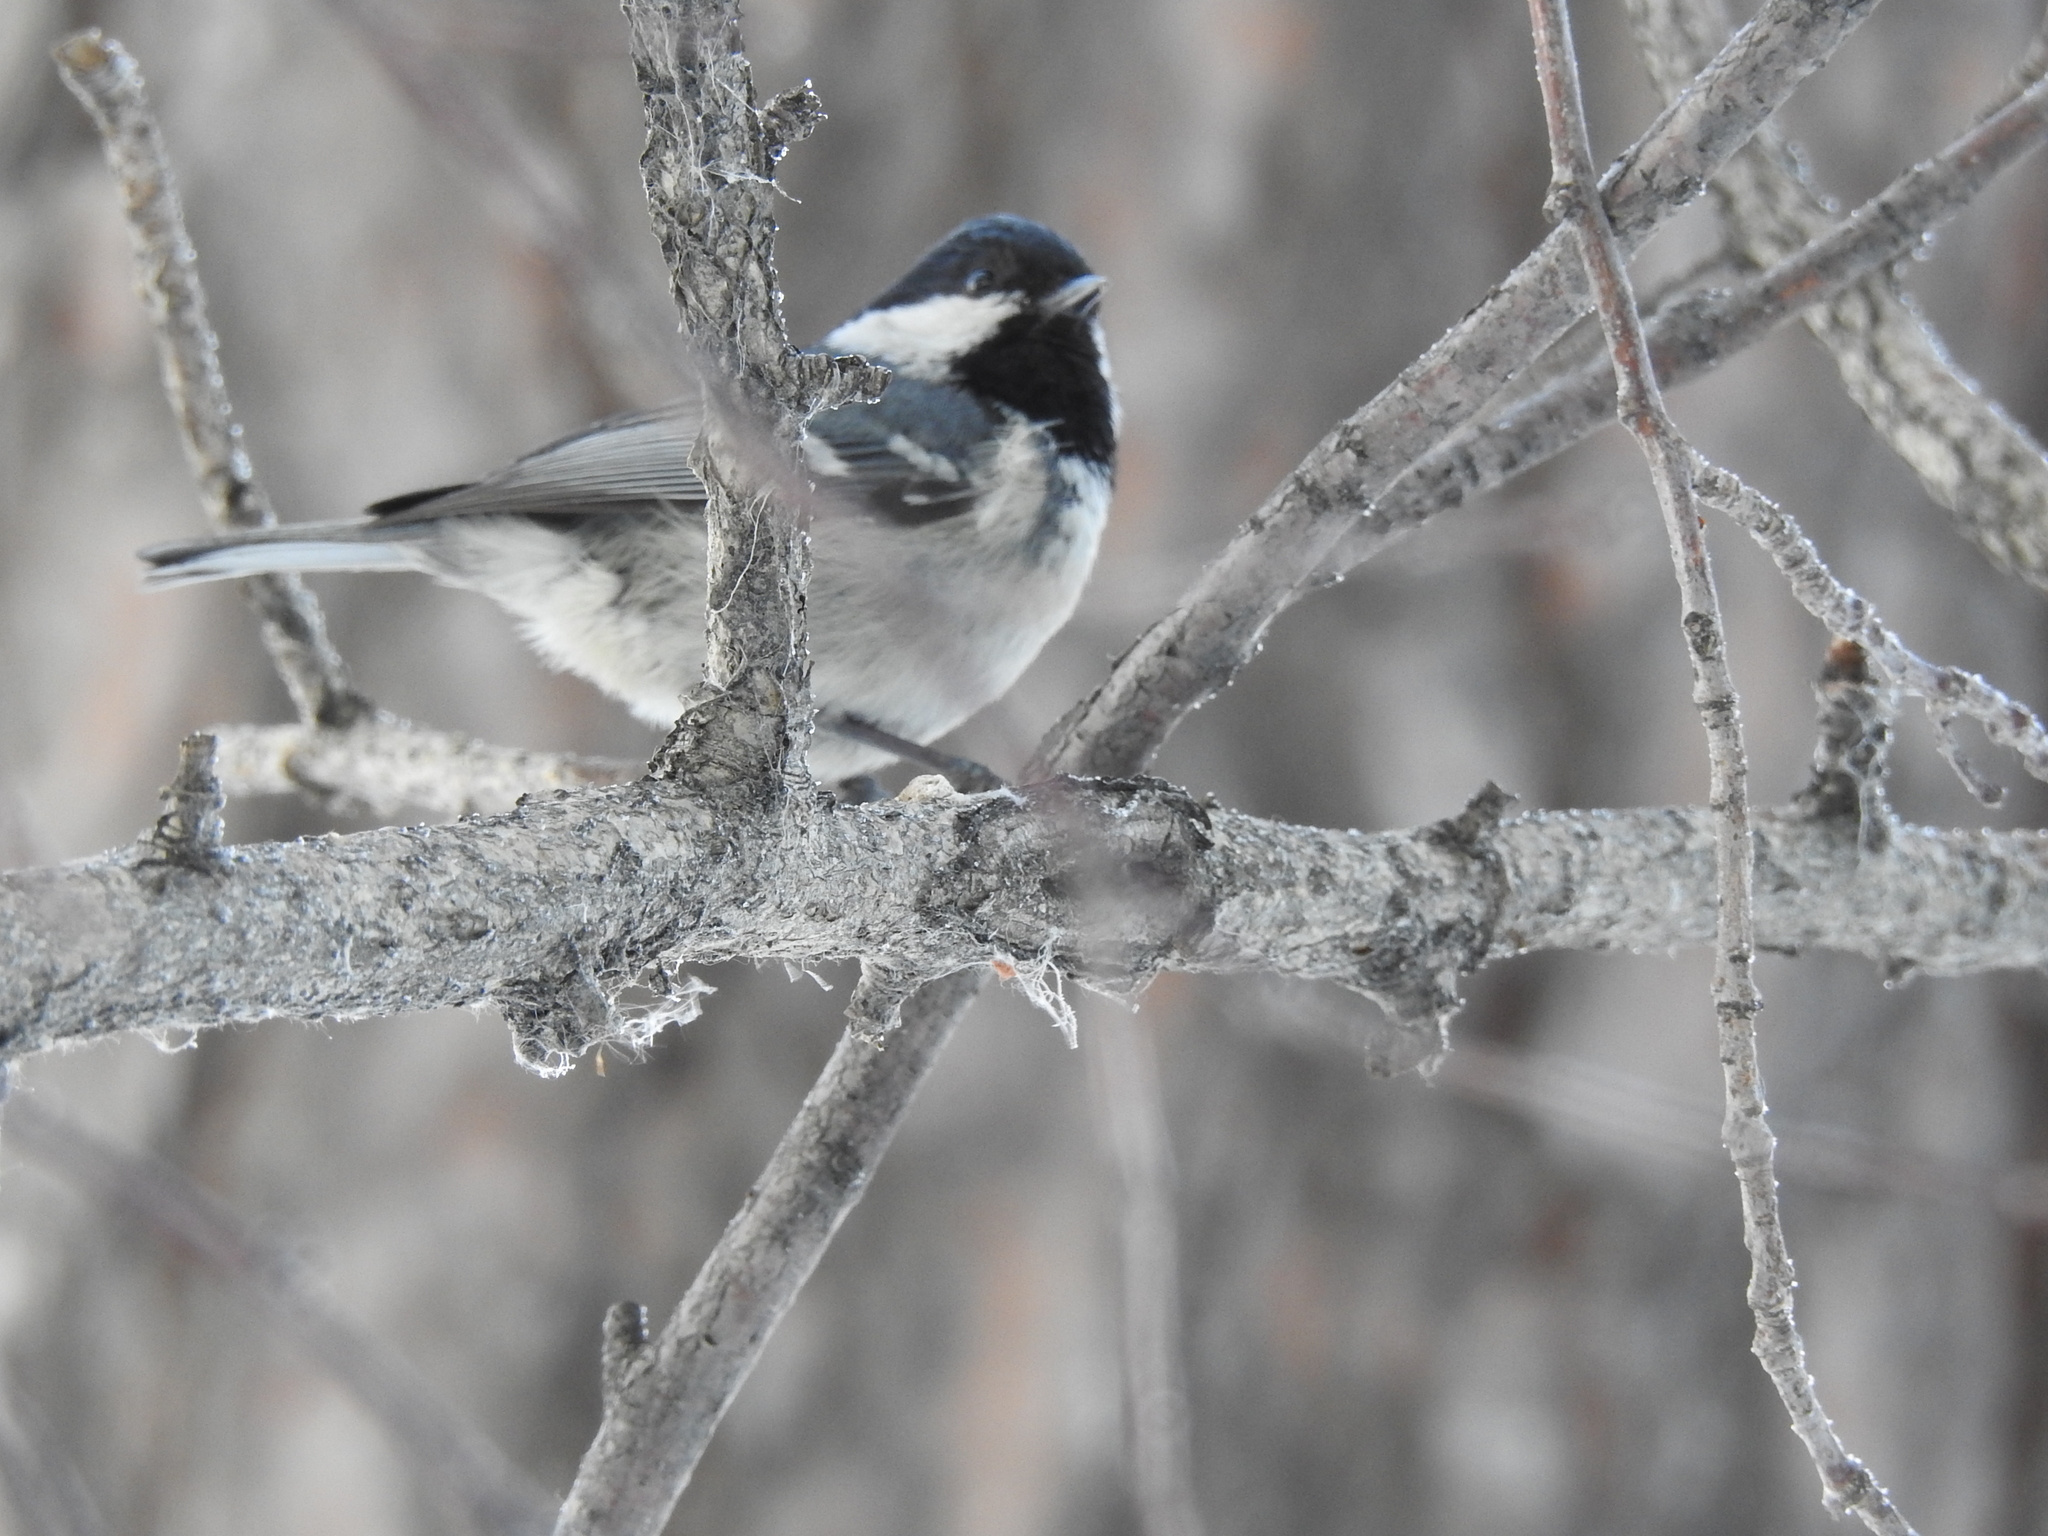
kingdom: Animalia
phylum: Chordata
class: Aves
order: Passeriformes
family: Paridae
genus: Periparus
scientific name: Periparus ater
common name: Coal tit
